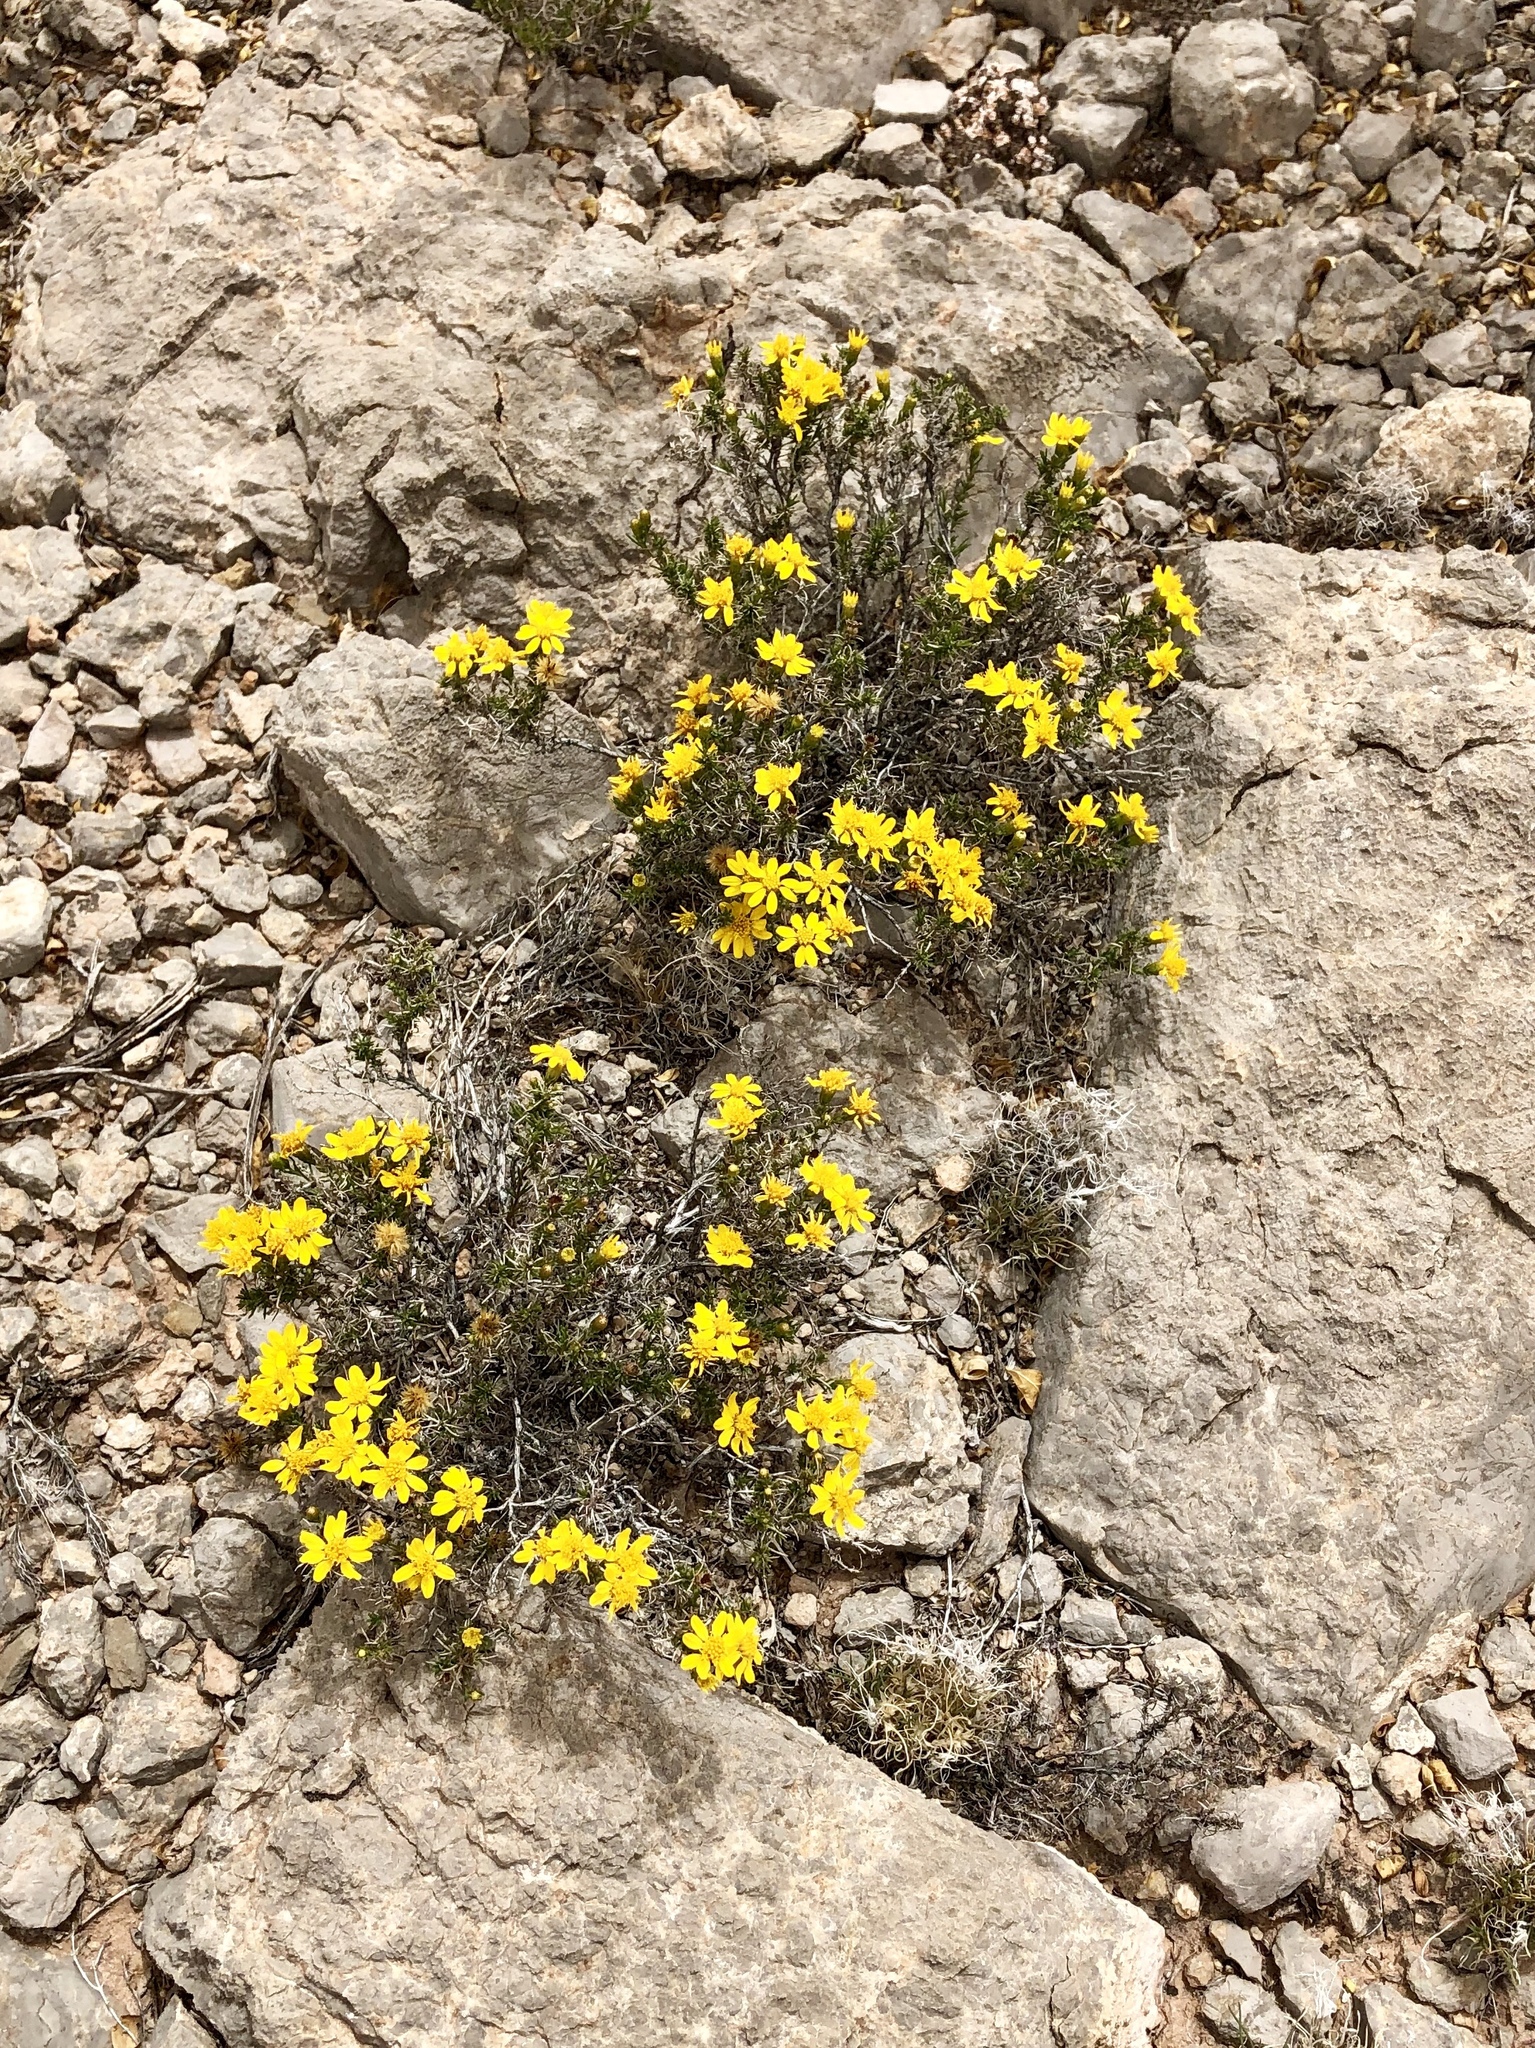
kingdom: Plantae
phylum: Tracheophyta
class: Magnoliopsida
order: Asterales
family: Asteraceae
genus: Thymophylla
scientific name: Thymophylla acerosa
